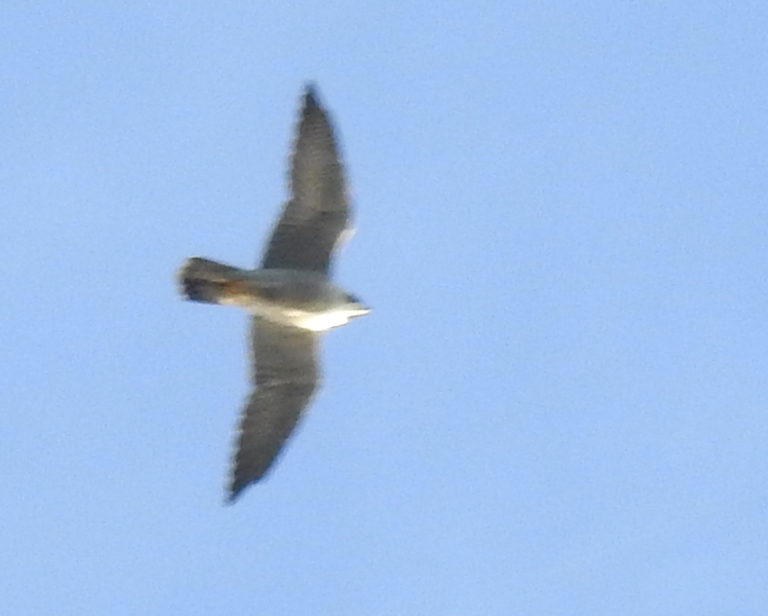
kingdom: Animalia
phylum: Chordata
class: Aves
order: Falconiformes
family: Falconidae
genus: Falco
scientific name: Falco peregrinus
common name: Peregrine falcon
